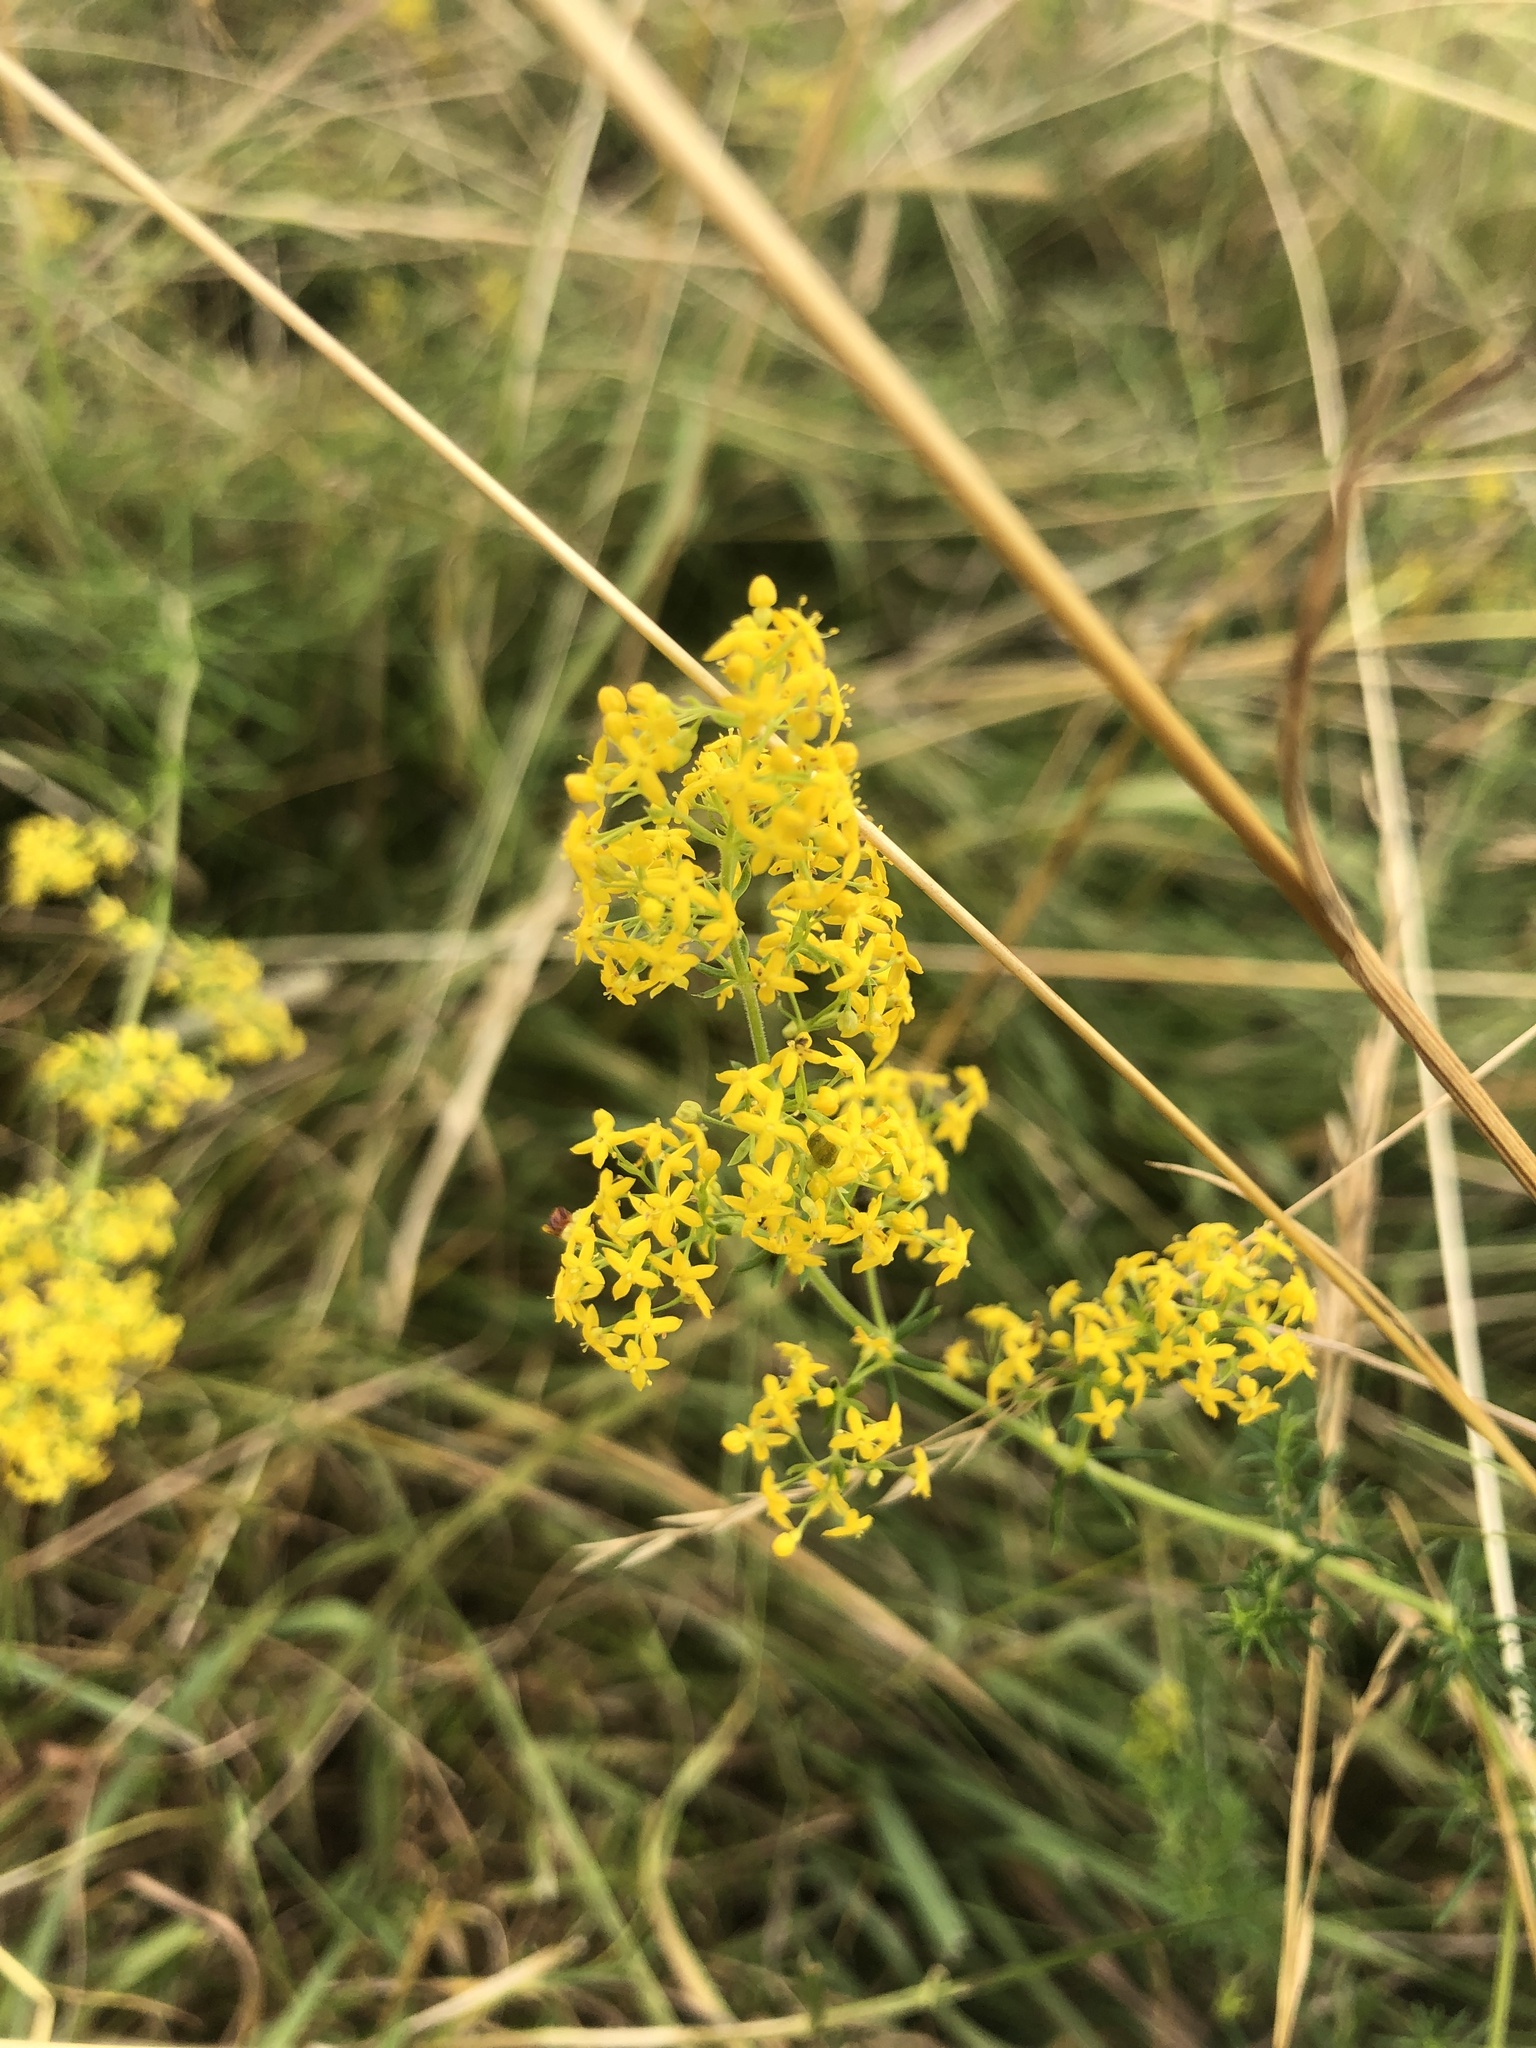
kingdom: Plantae
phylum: Tracheophyta
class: Magnoliopsida
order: Gentianales
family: Rubiaceae
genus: Galium
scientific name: Galium verum
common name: Lady's bedstraw
